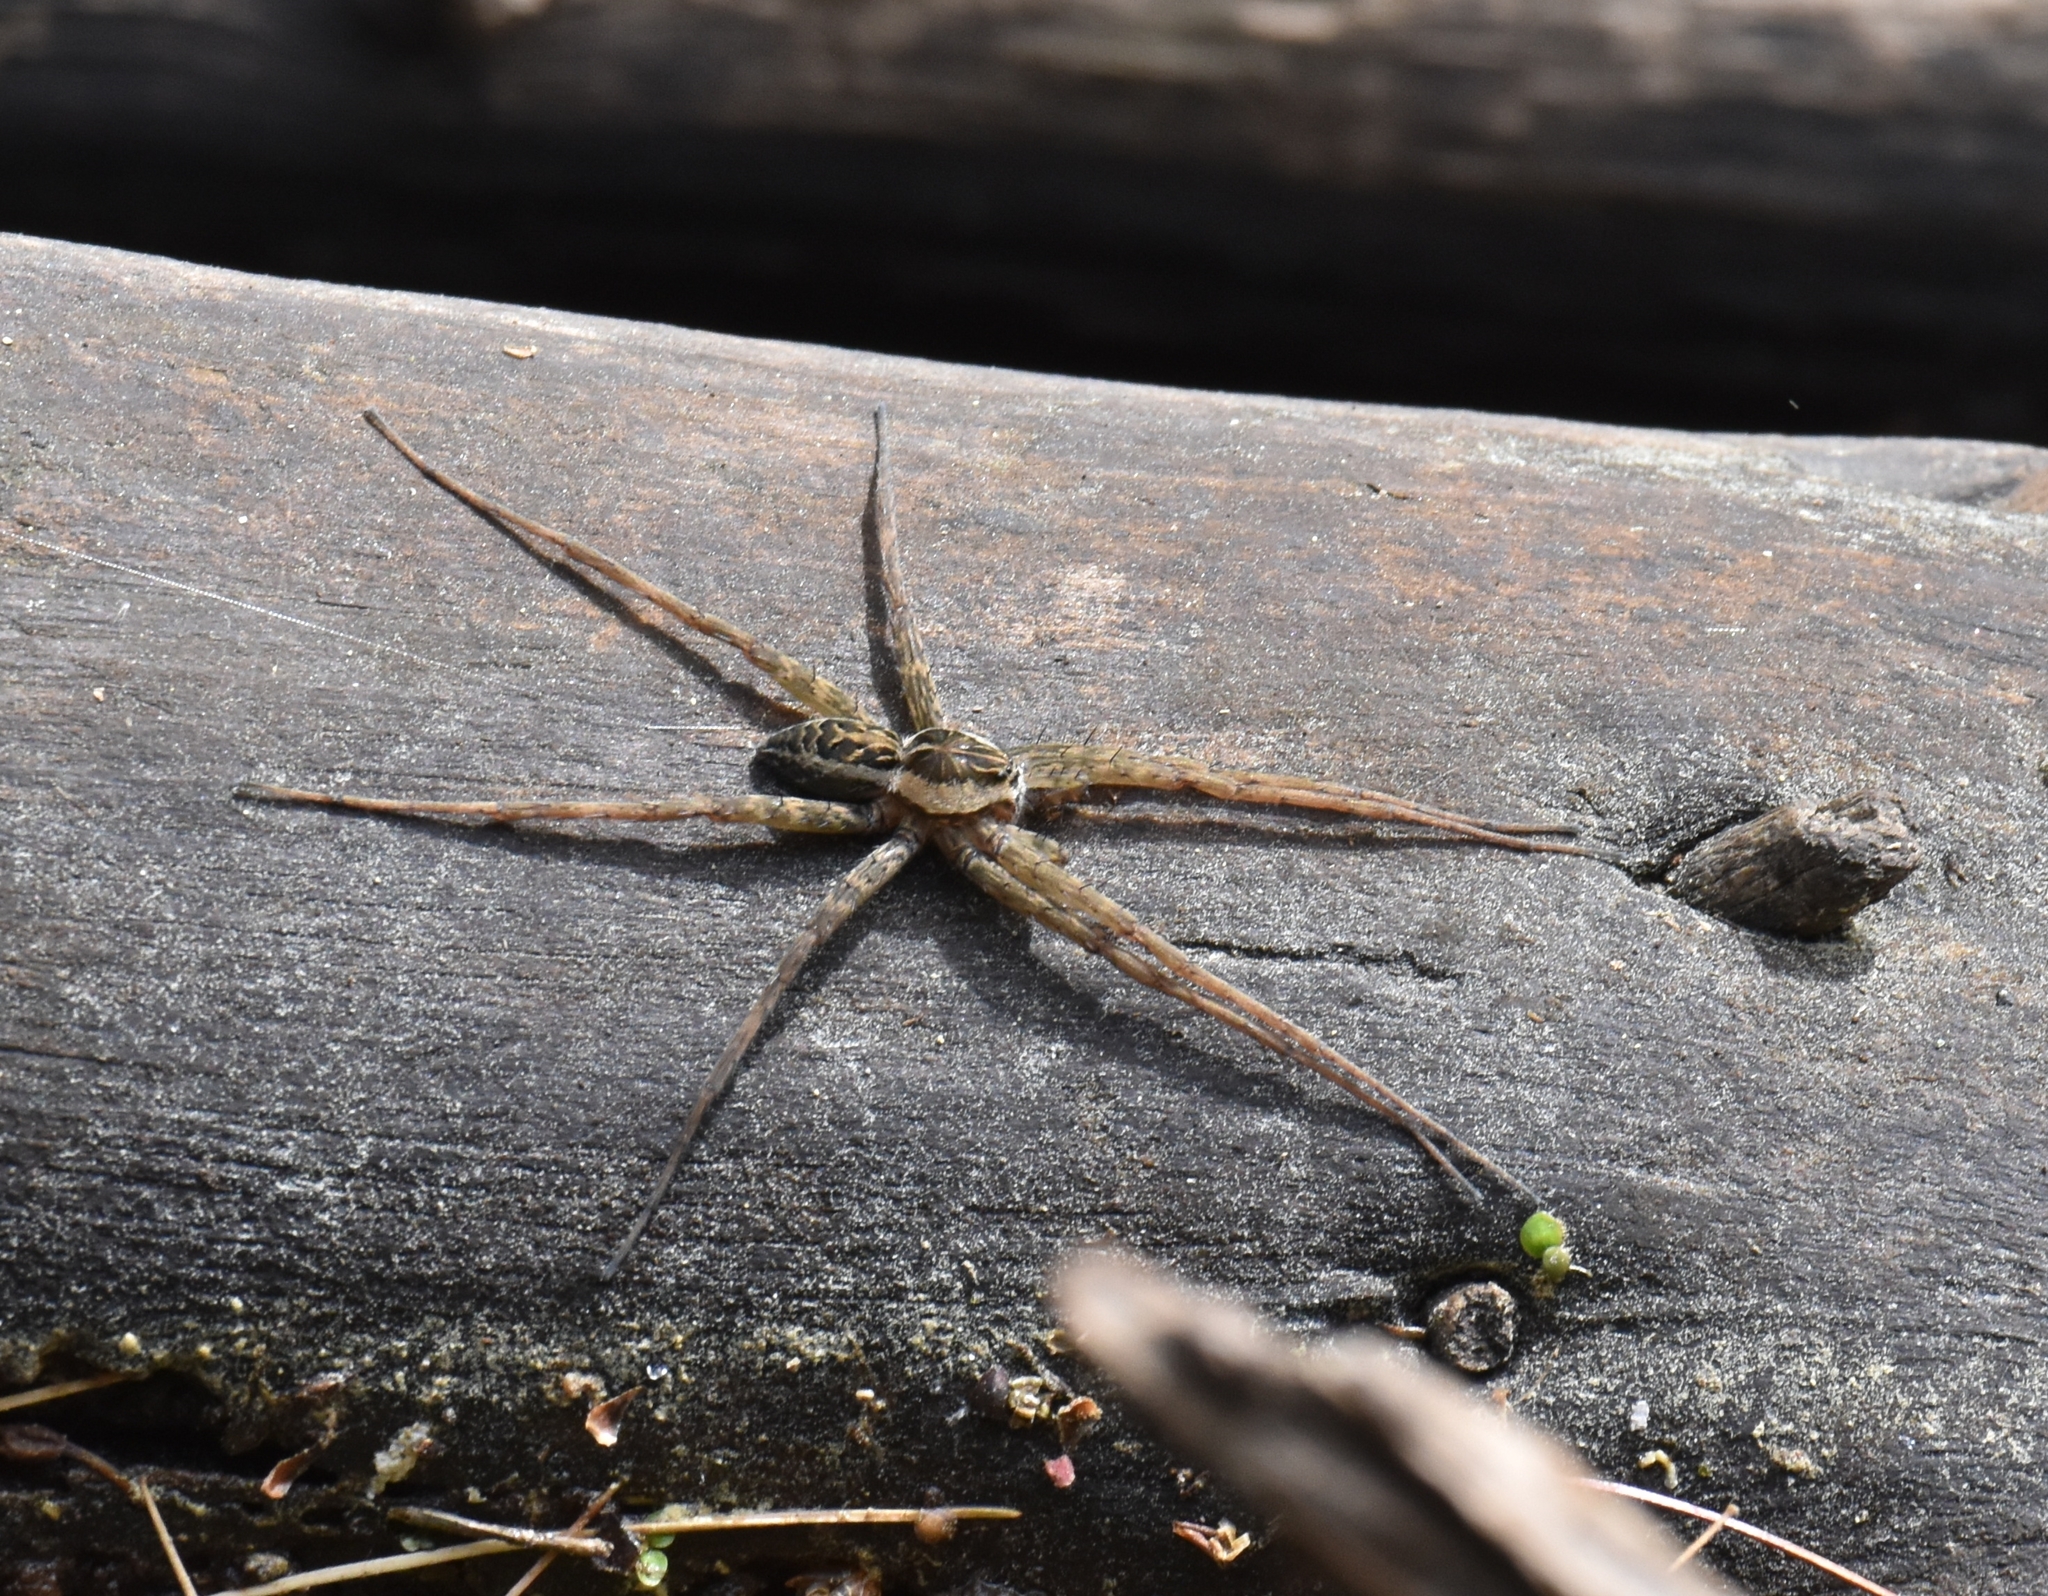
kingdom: Animalia
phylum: Arthropoda
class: Arachnida
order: Araneae
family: Pisauridae
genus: Dolomedes
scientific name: Dolomedes scriptus
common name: Striped fishing spider
